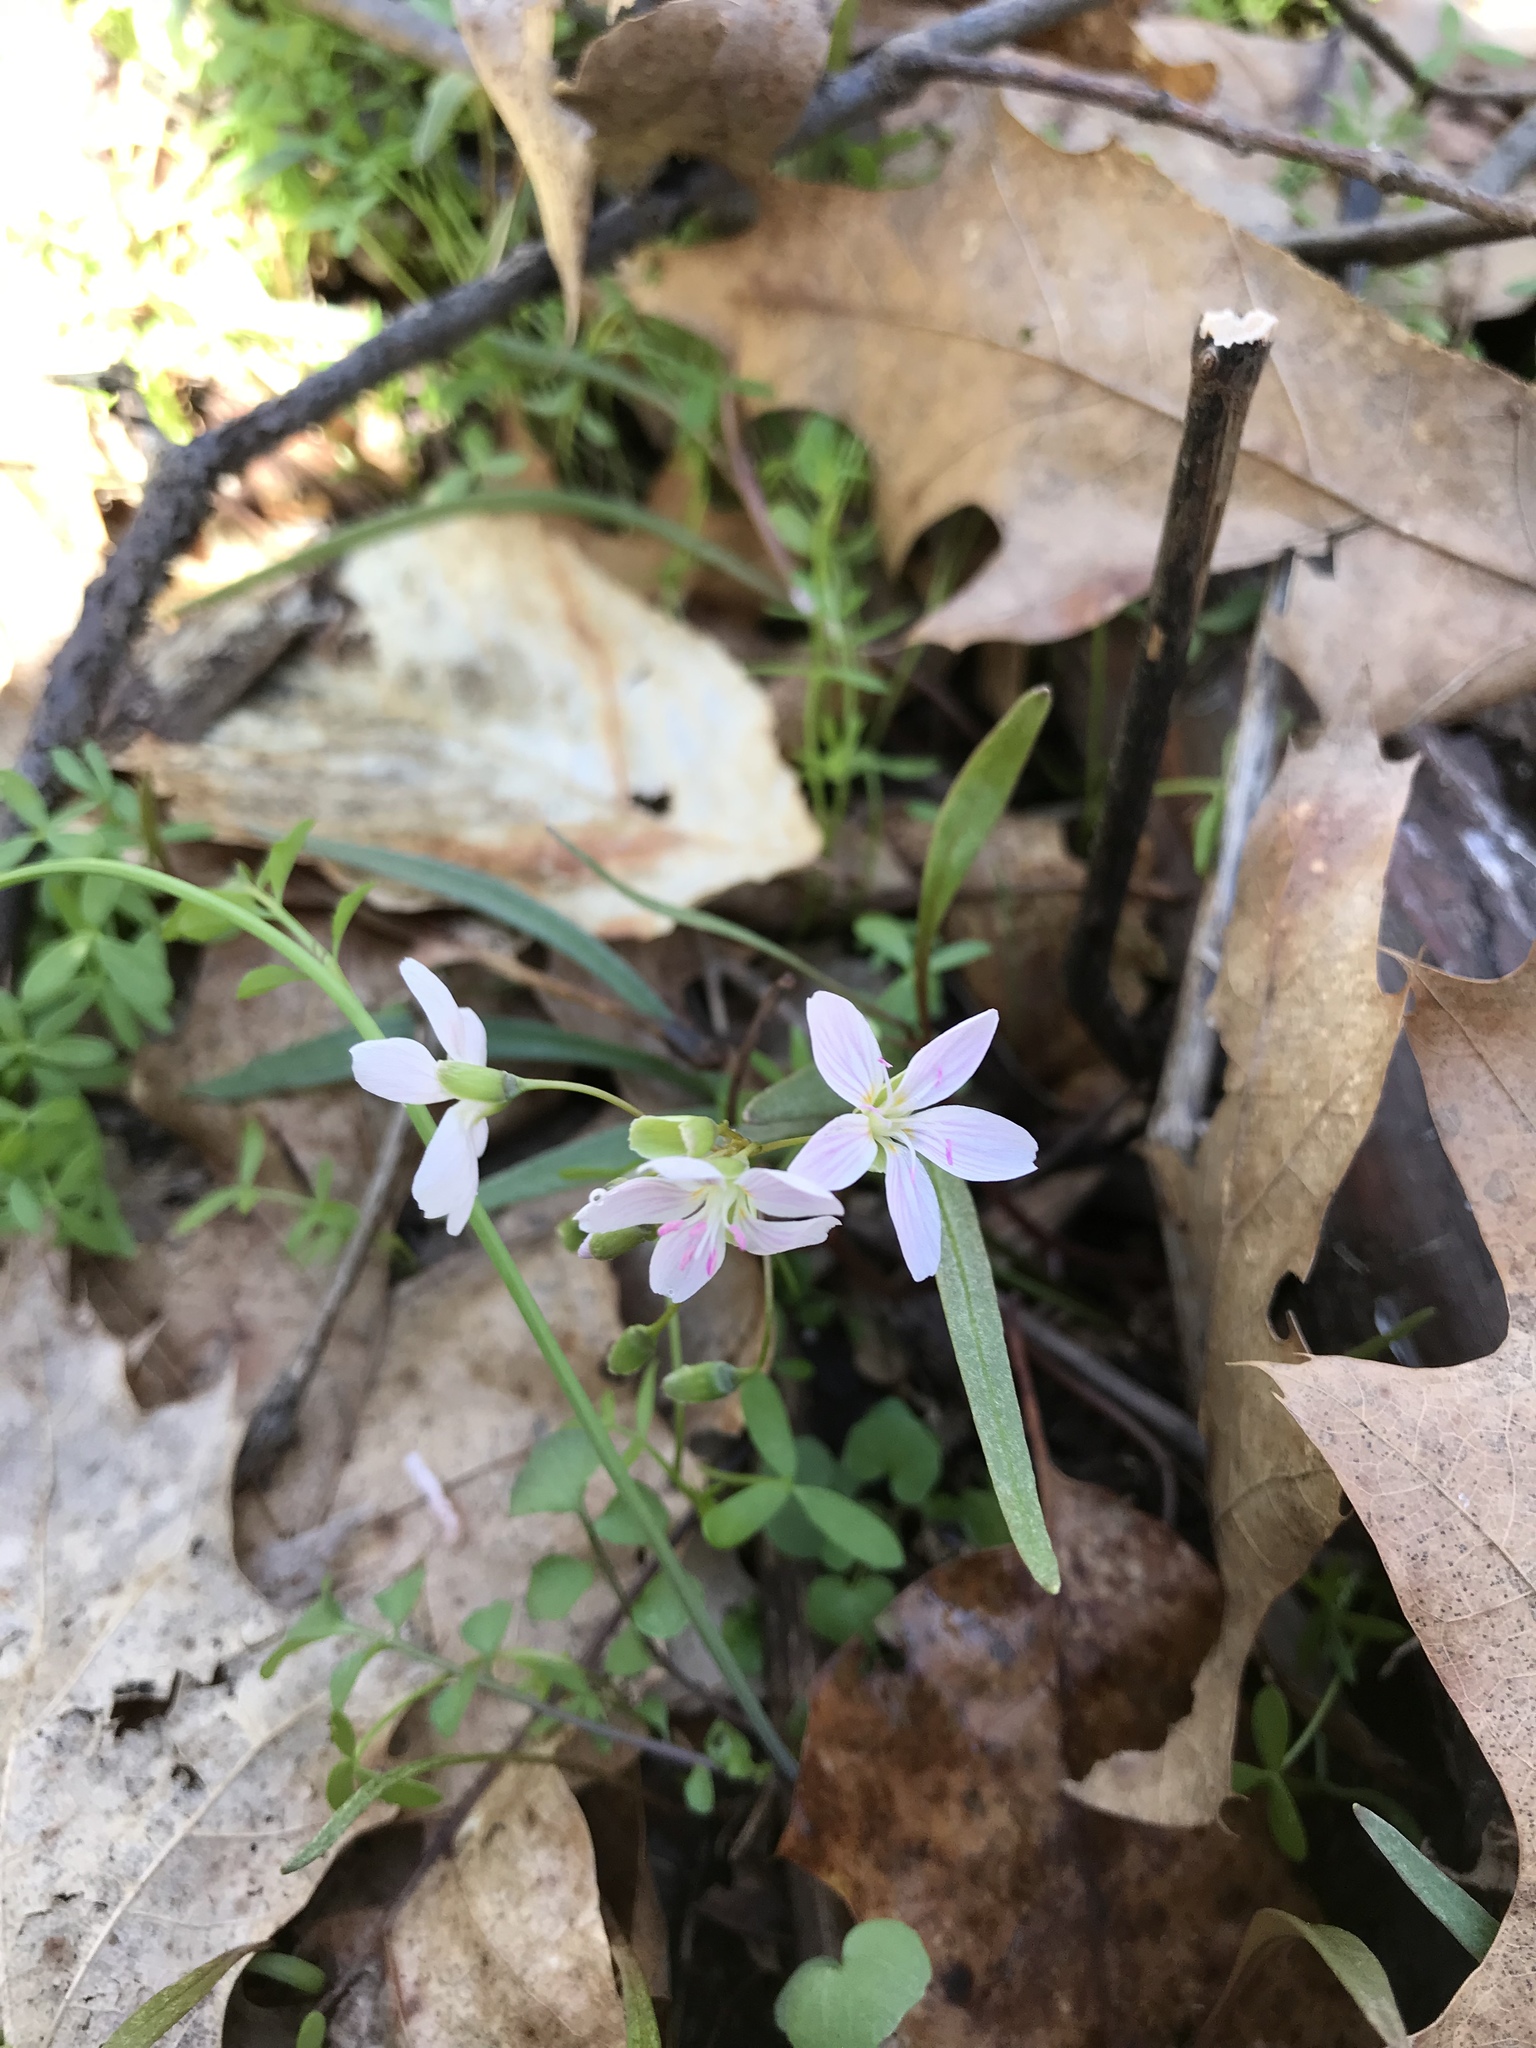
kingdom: Plantae
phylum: Tracheophyta
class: Magnoliopsida
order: Caryophyllales
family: Montiaceae
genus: Claytonia
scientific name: Claytonia virginica
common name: Virginia springbeauty
